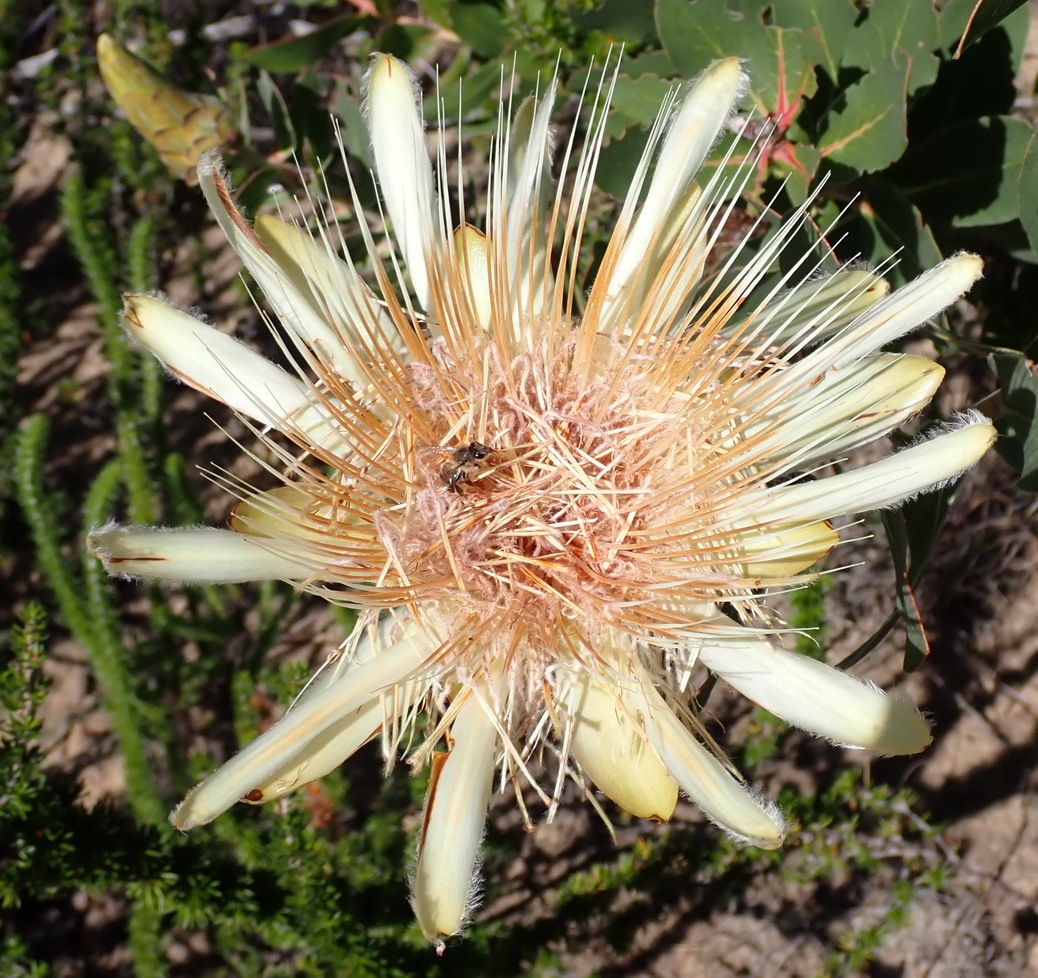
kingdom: Plantae
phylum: Tracheophyta
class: Magnoliopsida
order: Proteales
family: Proteaceae
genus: Protea
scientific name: Protea aurea
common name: Shuttlecock sugarbush
